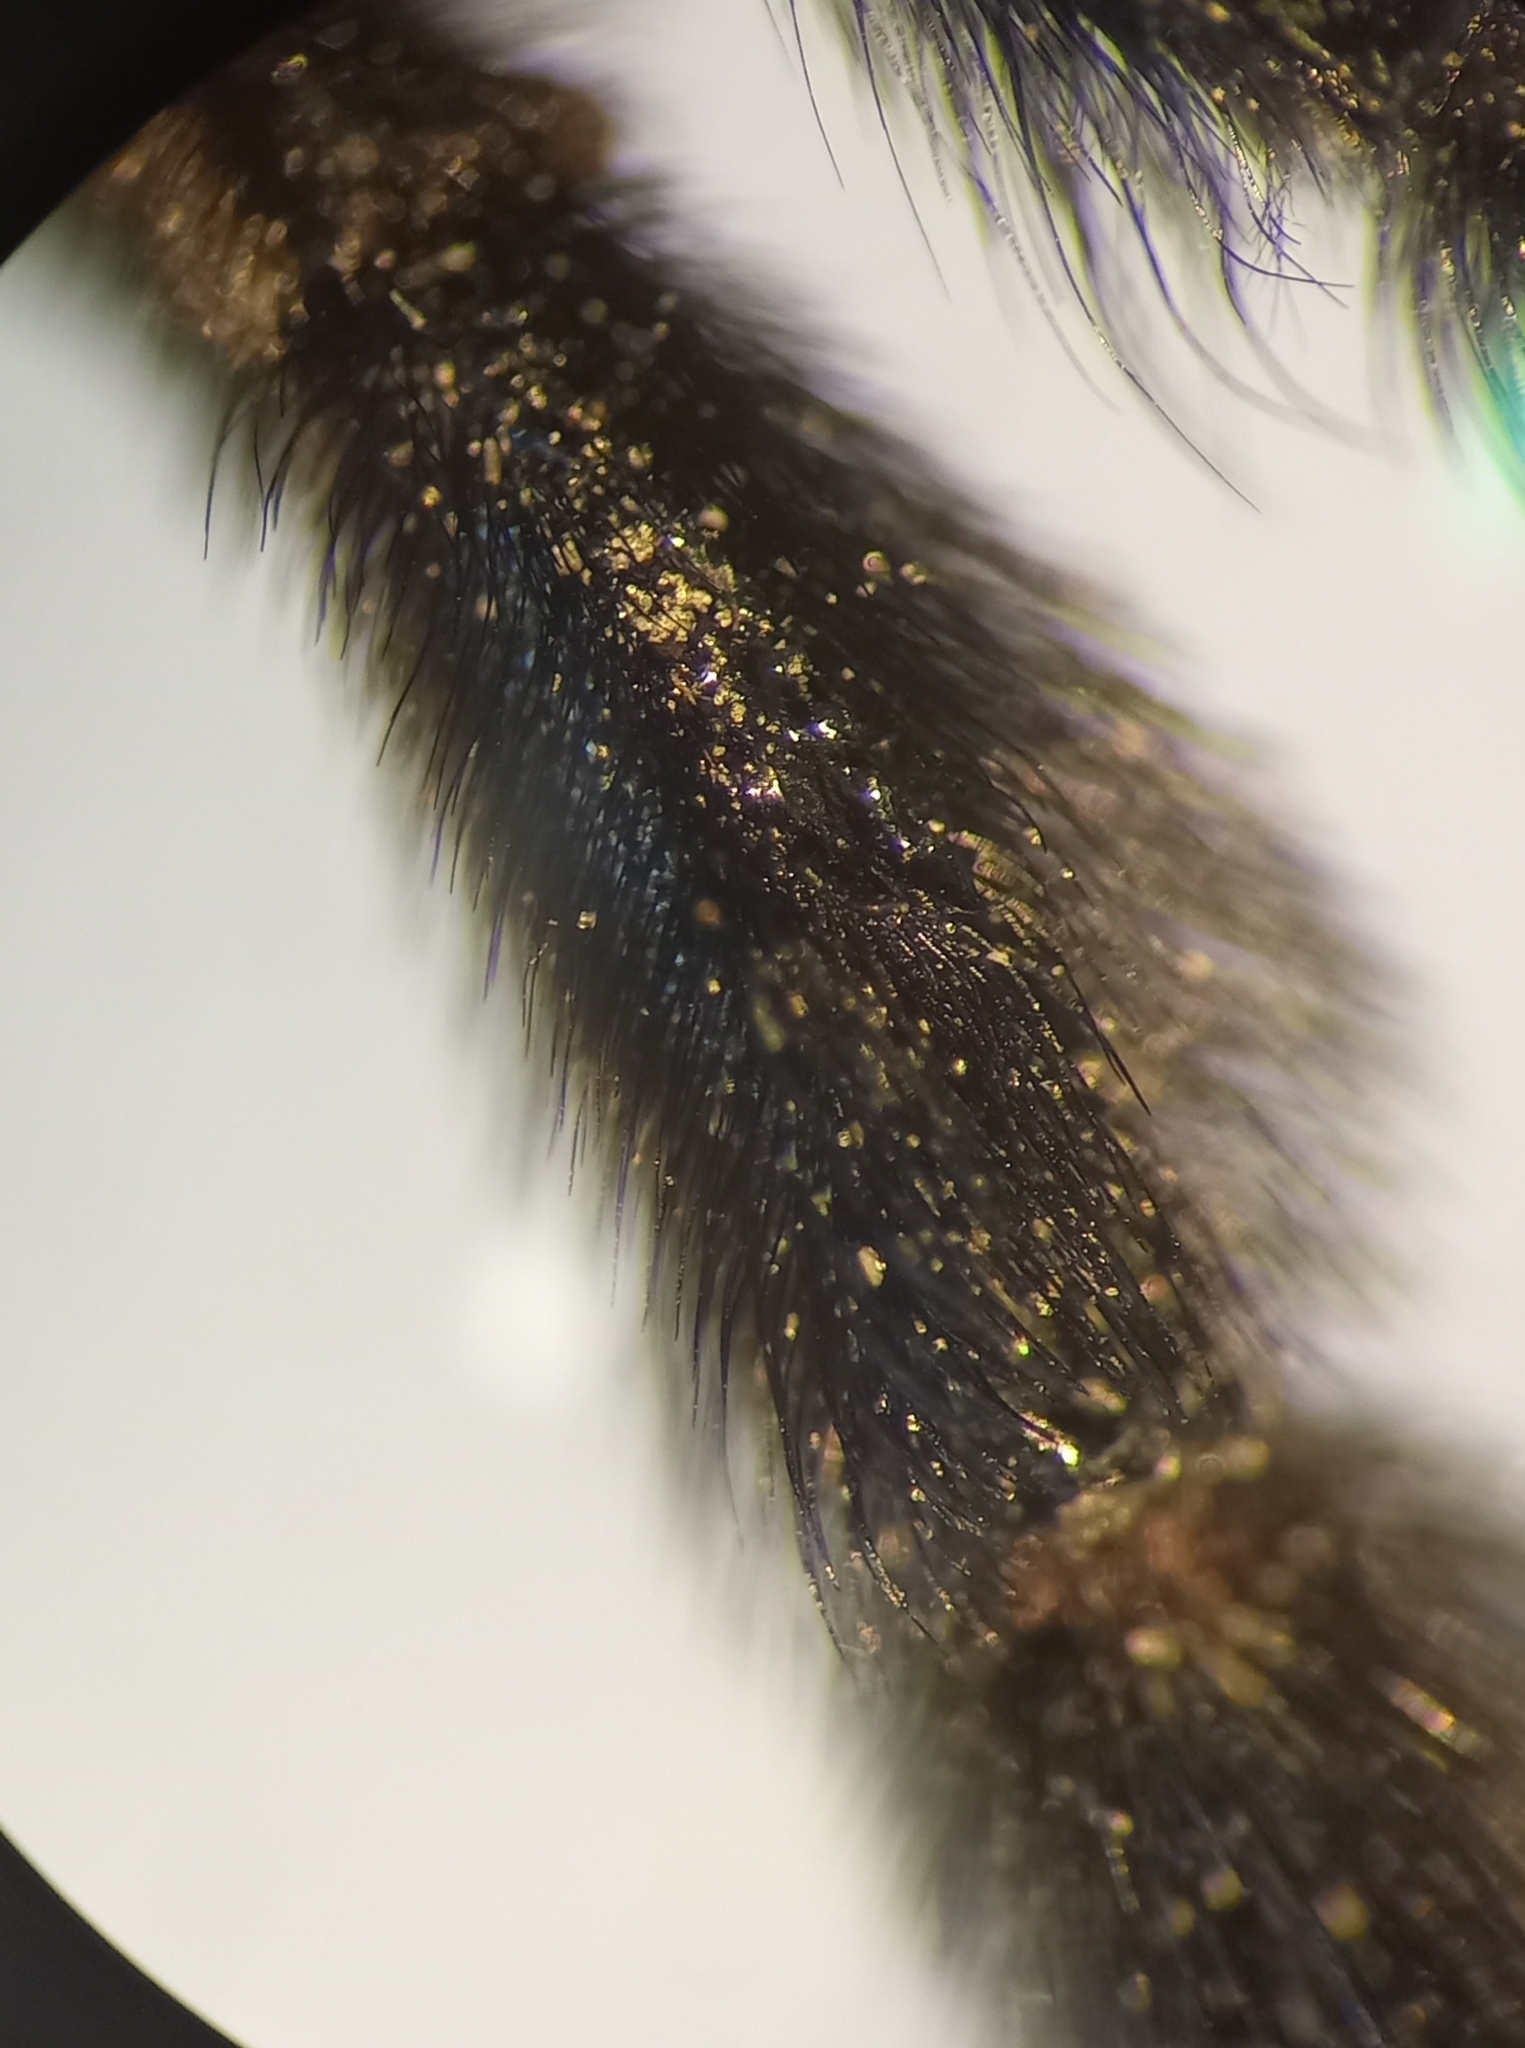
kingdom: Animalia
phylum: Arthropoda
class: Insecta
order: Hymenoptera
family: Apidae
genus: Xylocopa
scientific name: Xylocopa violacea
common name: Violet carpenter bee
